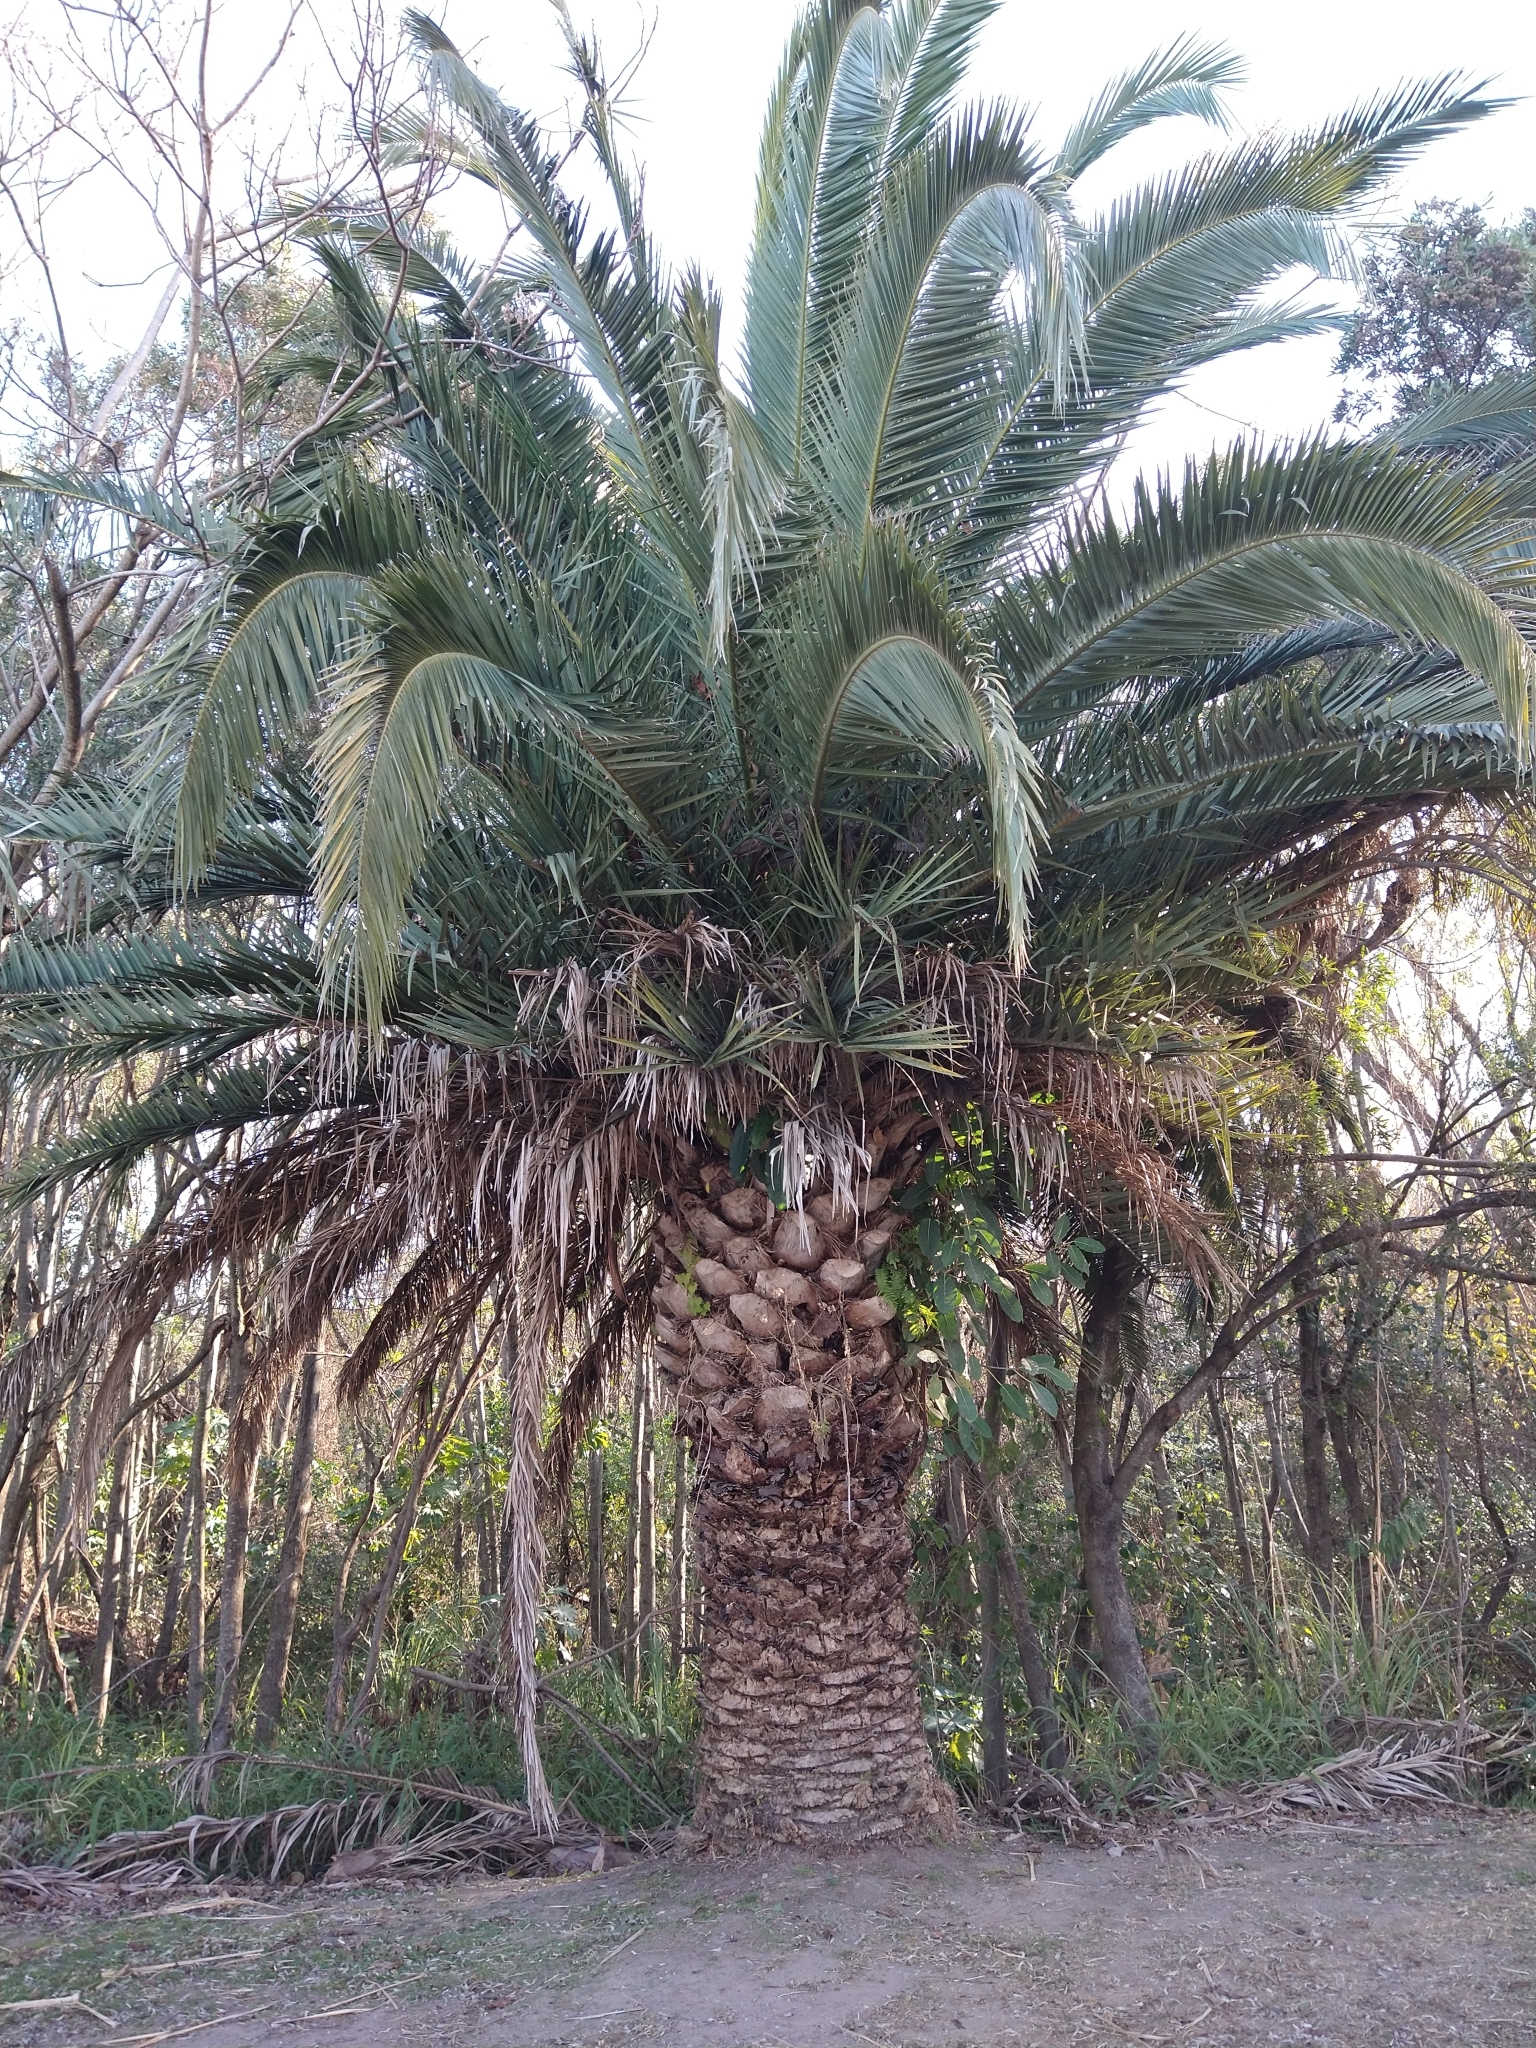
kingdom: Plantae
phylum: Tracheophyta
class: Liliopsida
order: Arecales
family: Arecaceae
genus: Phoenix
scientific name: Phoenix canariensis
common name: Canary island date palm
